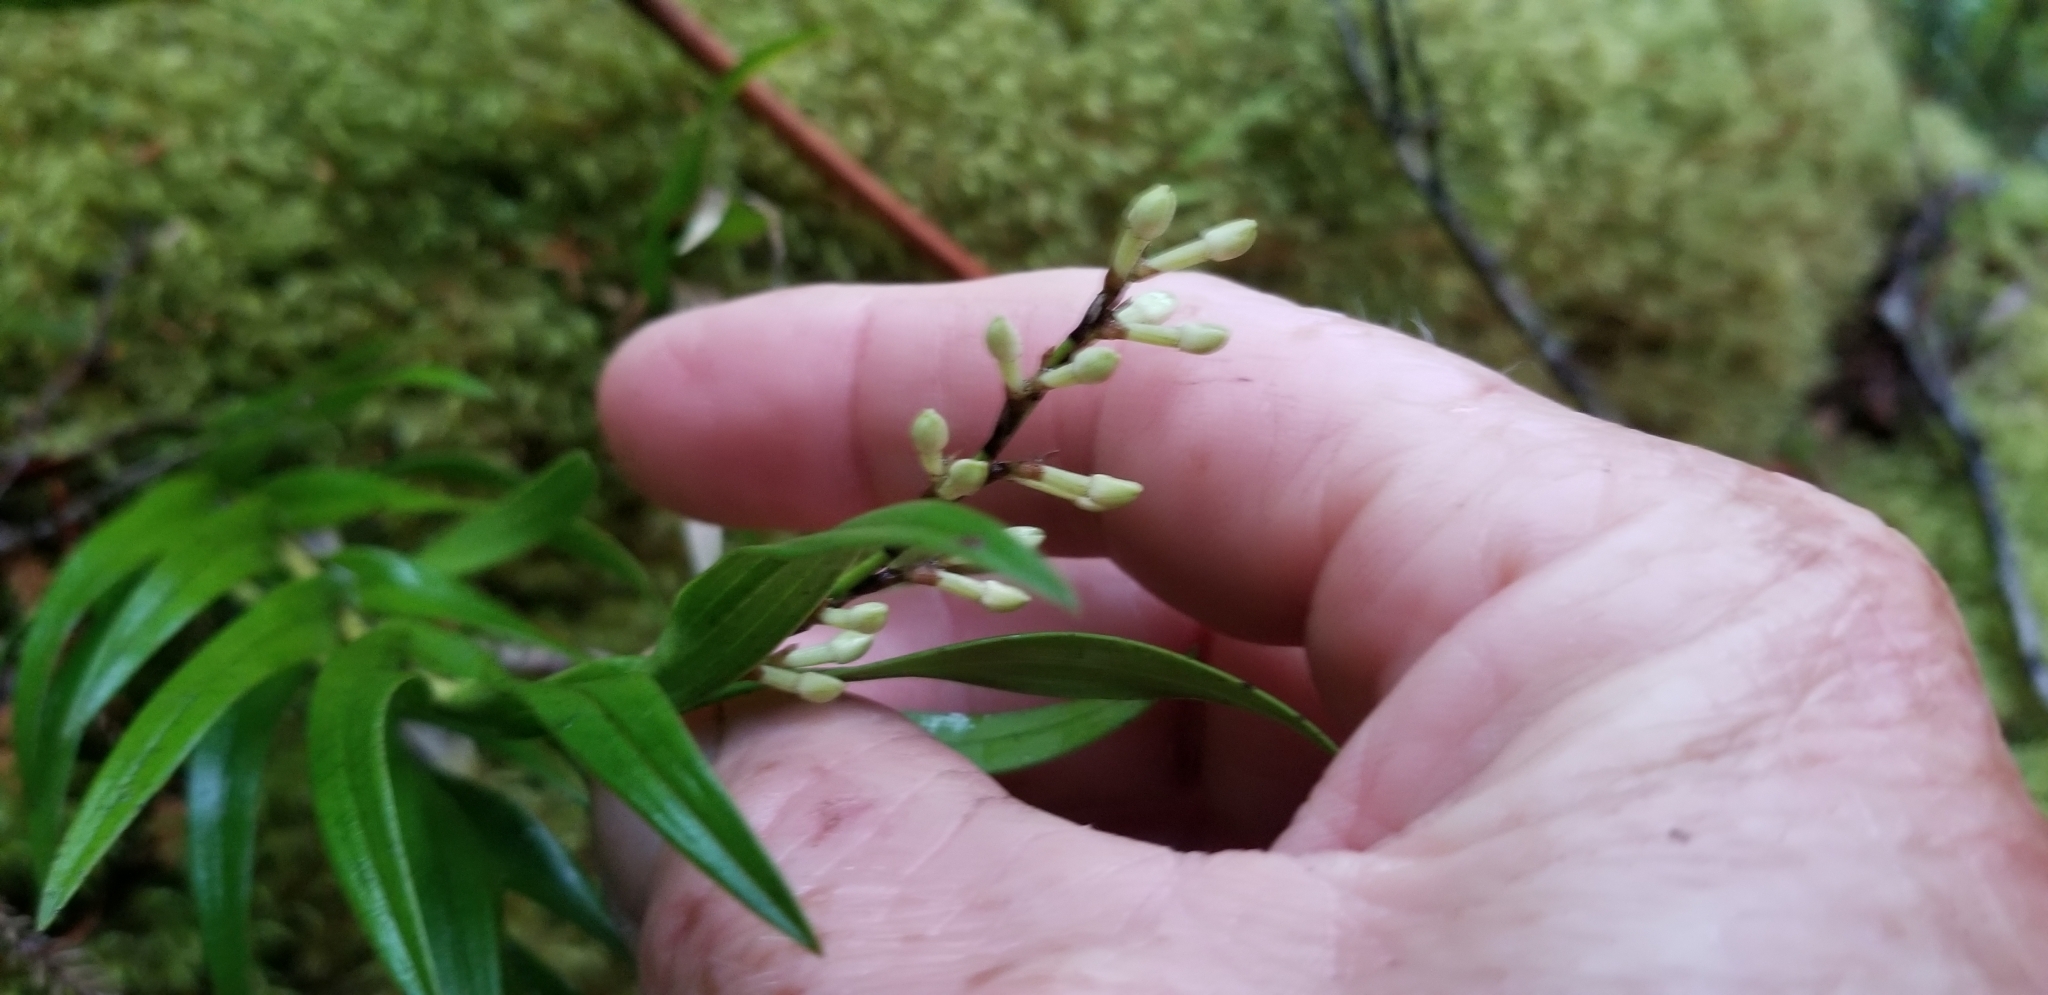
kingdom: Plantae
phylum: Tracheophyta
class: Liliopsida
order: Asparagales
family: Orchidaceae
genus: Earina
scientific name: Earina autumnalis
